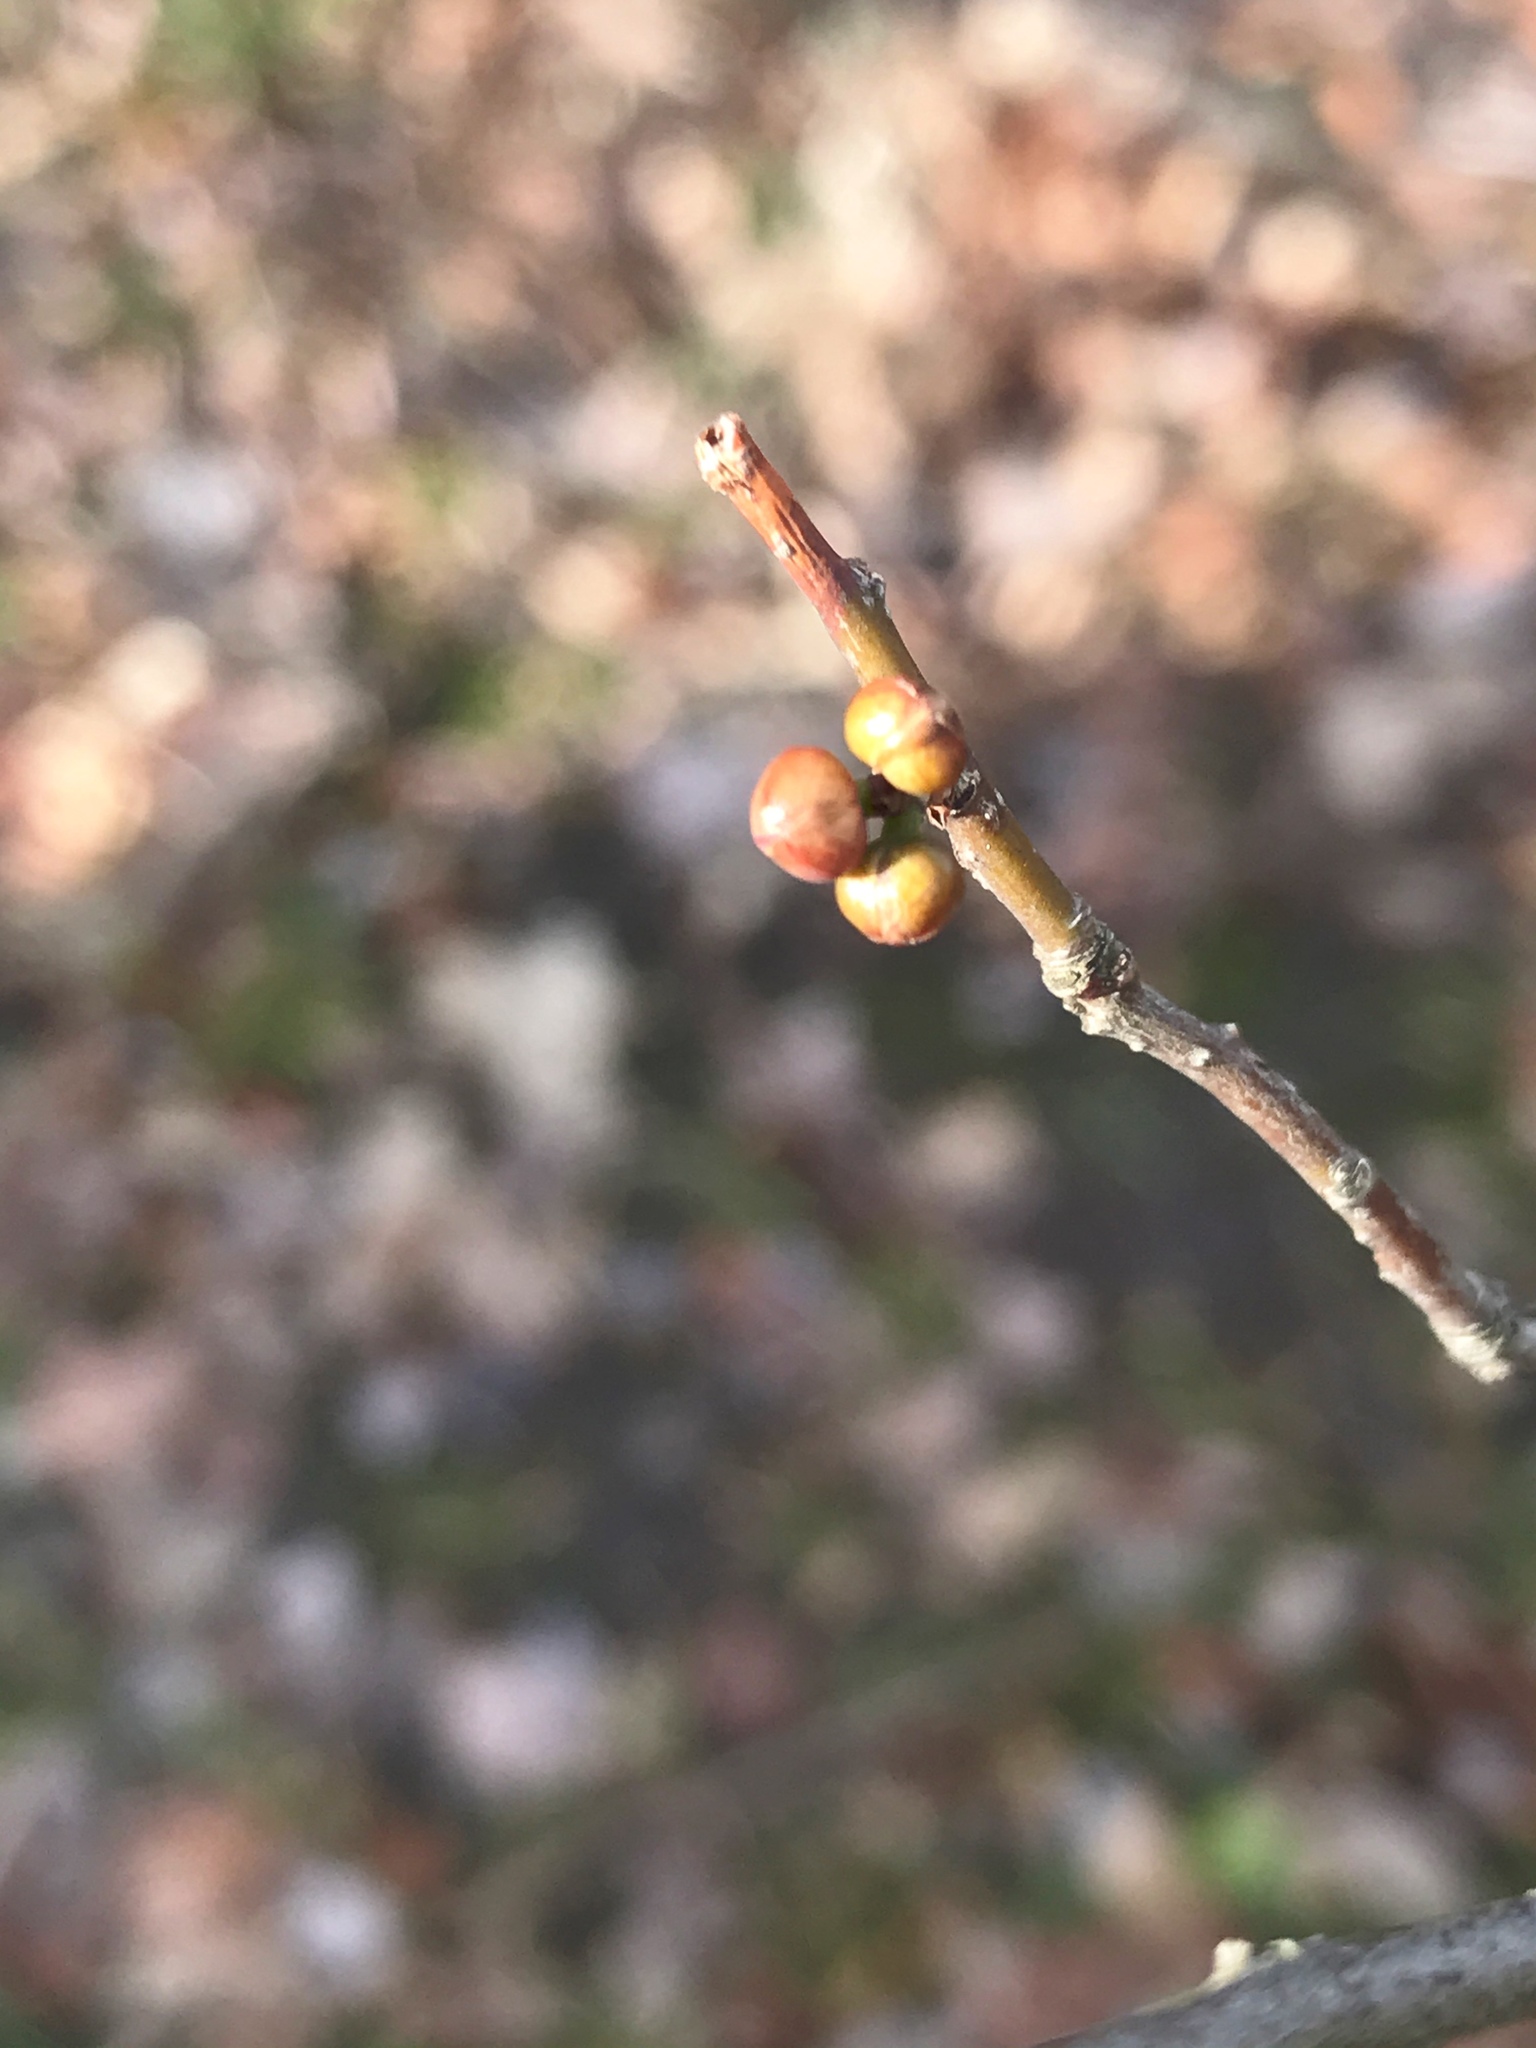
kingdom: Plantae
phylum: Tracheophyta
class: Magnoliopsida
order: Laurales
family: Lauraceae
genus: Lindera
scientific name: Lindera benzoin
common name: Spicebush
